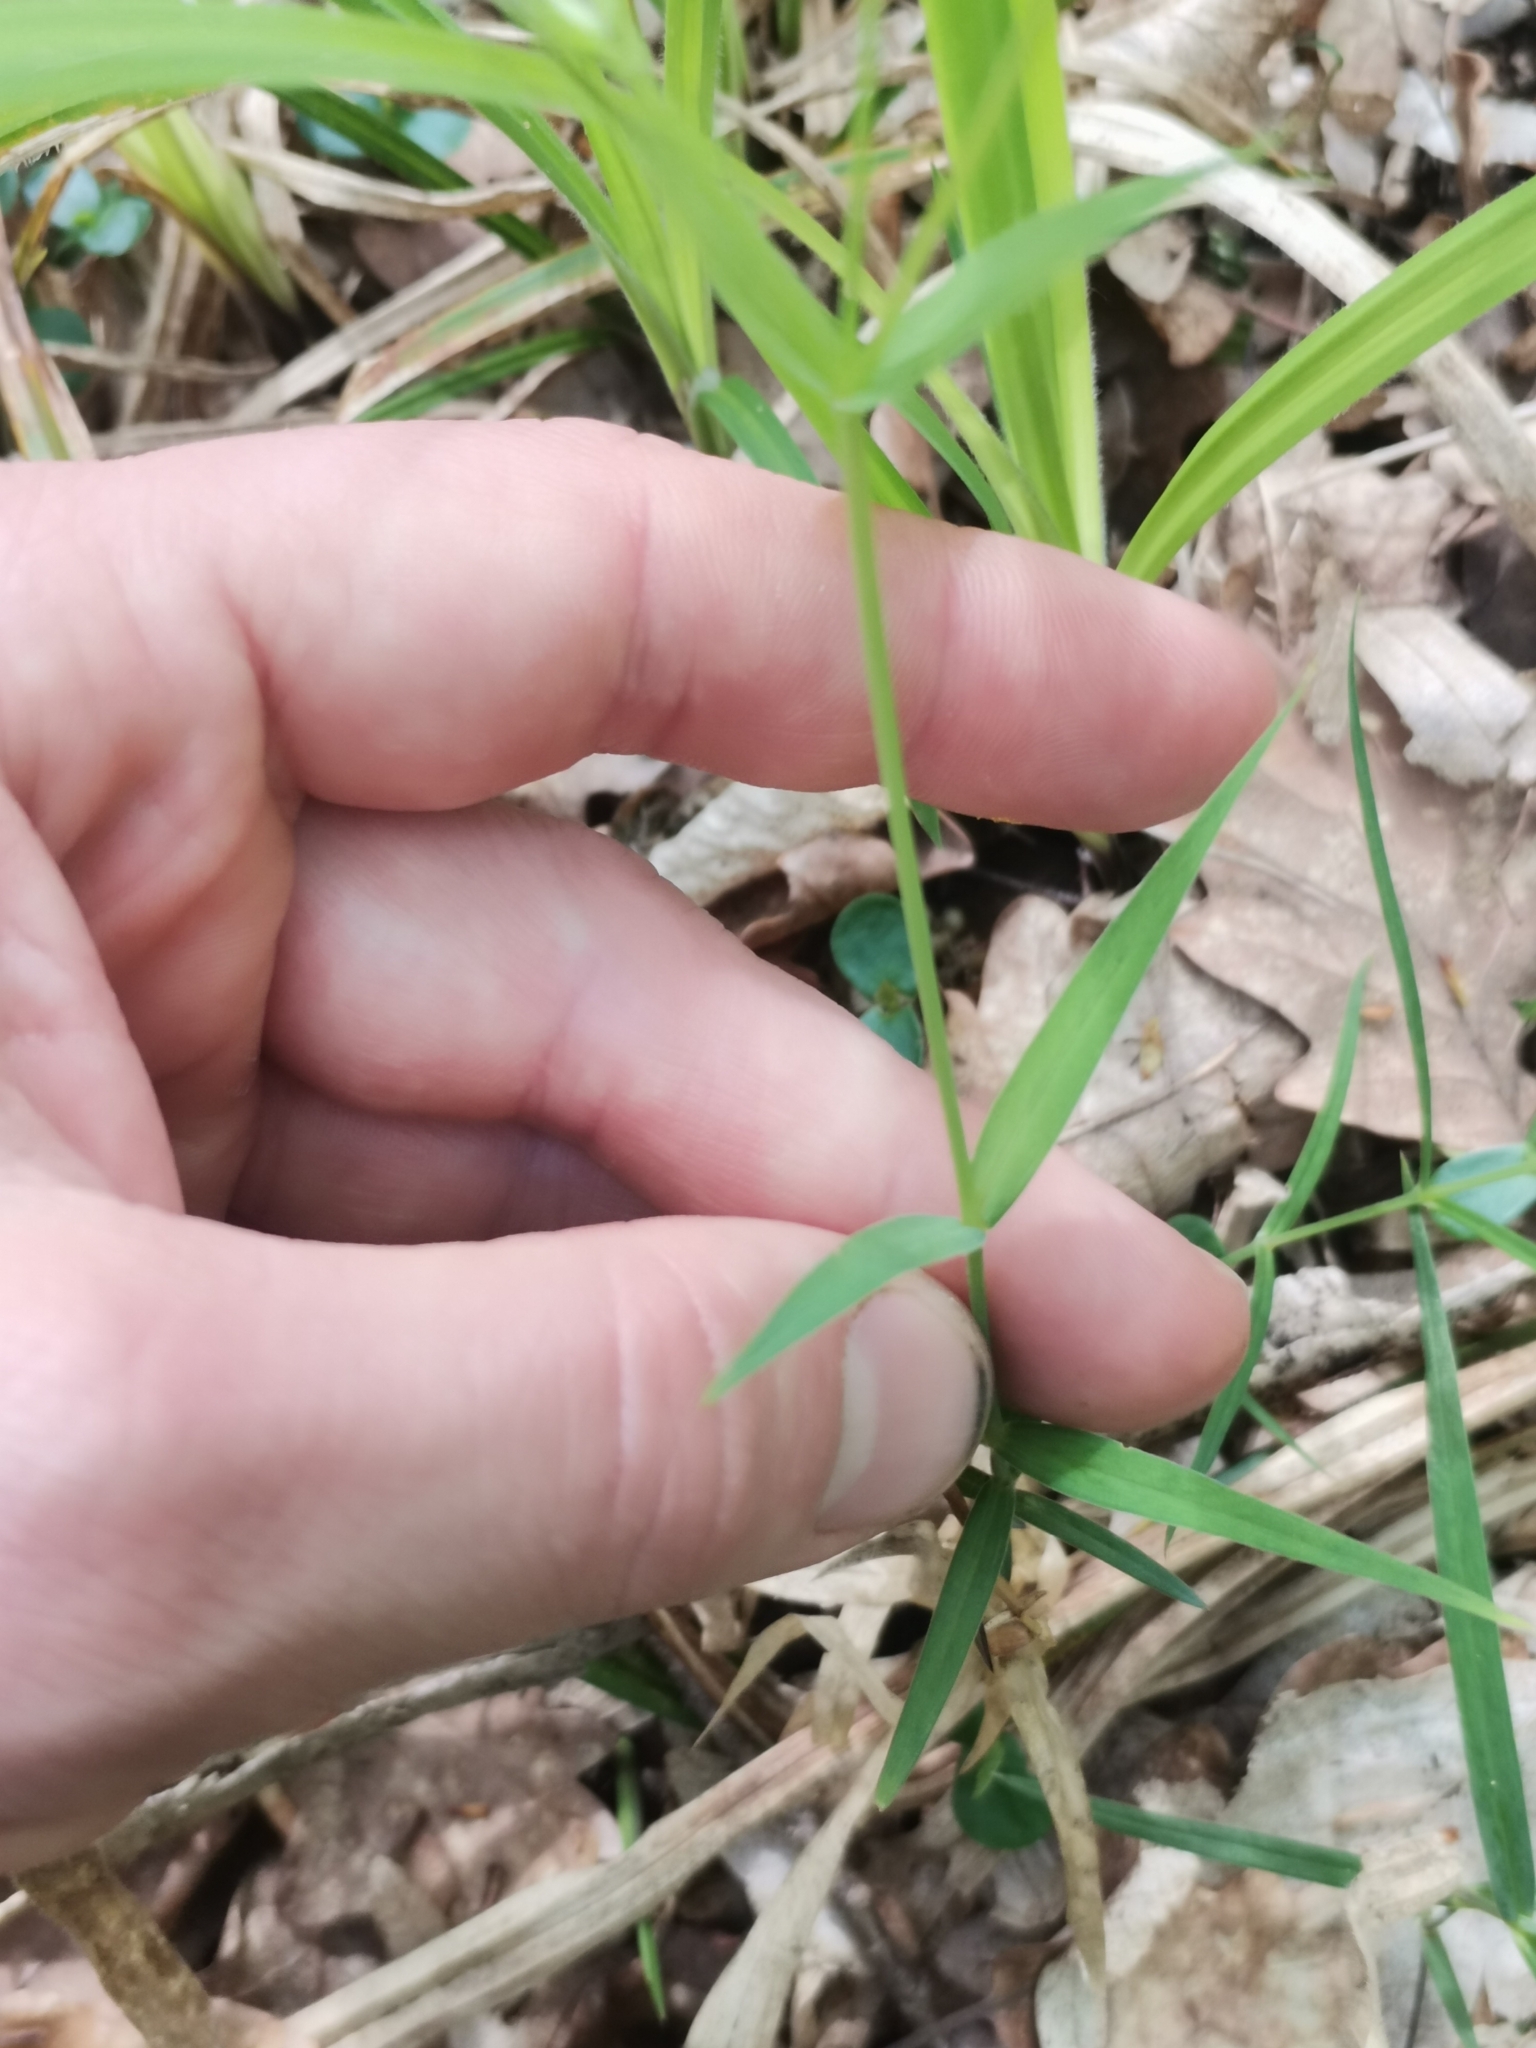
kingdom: Plantae
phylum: Tracheophyta
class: Magnoliopsida
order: Caryophyllales
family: Caryophyllaceae
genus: Rabelera
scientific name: Rabelera holostea
